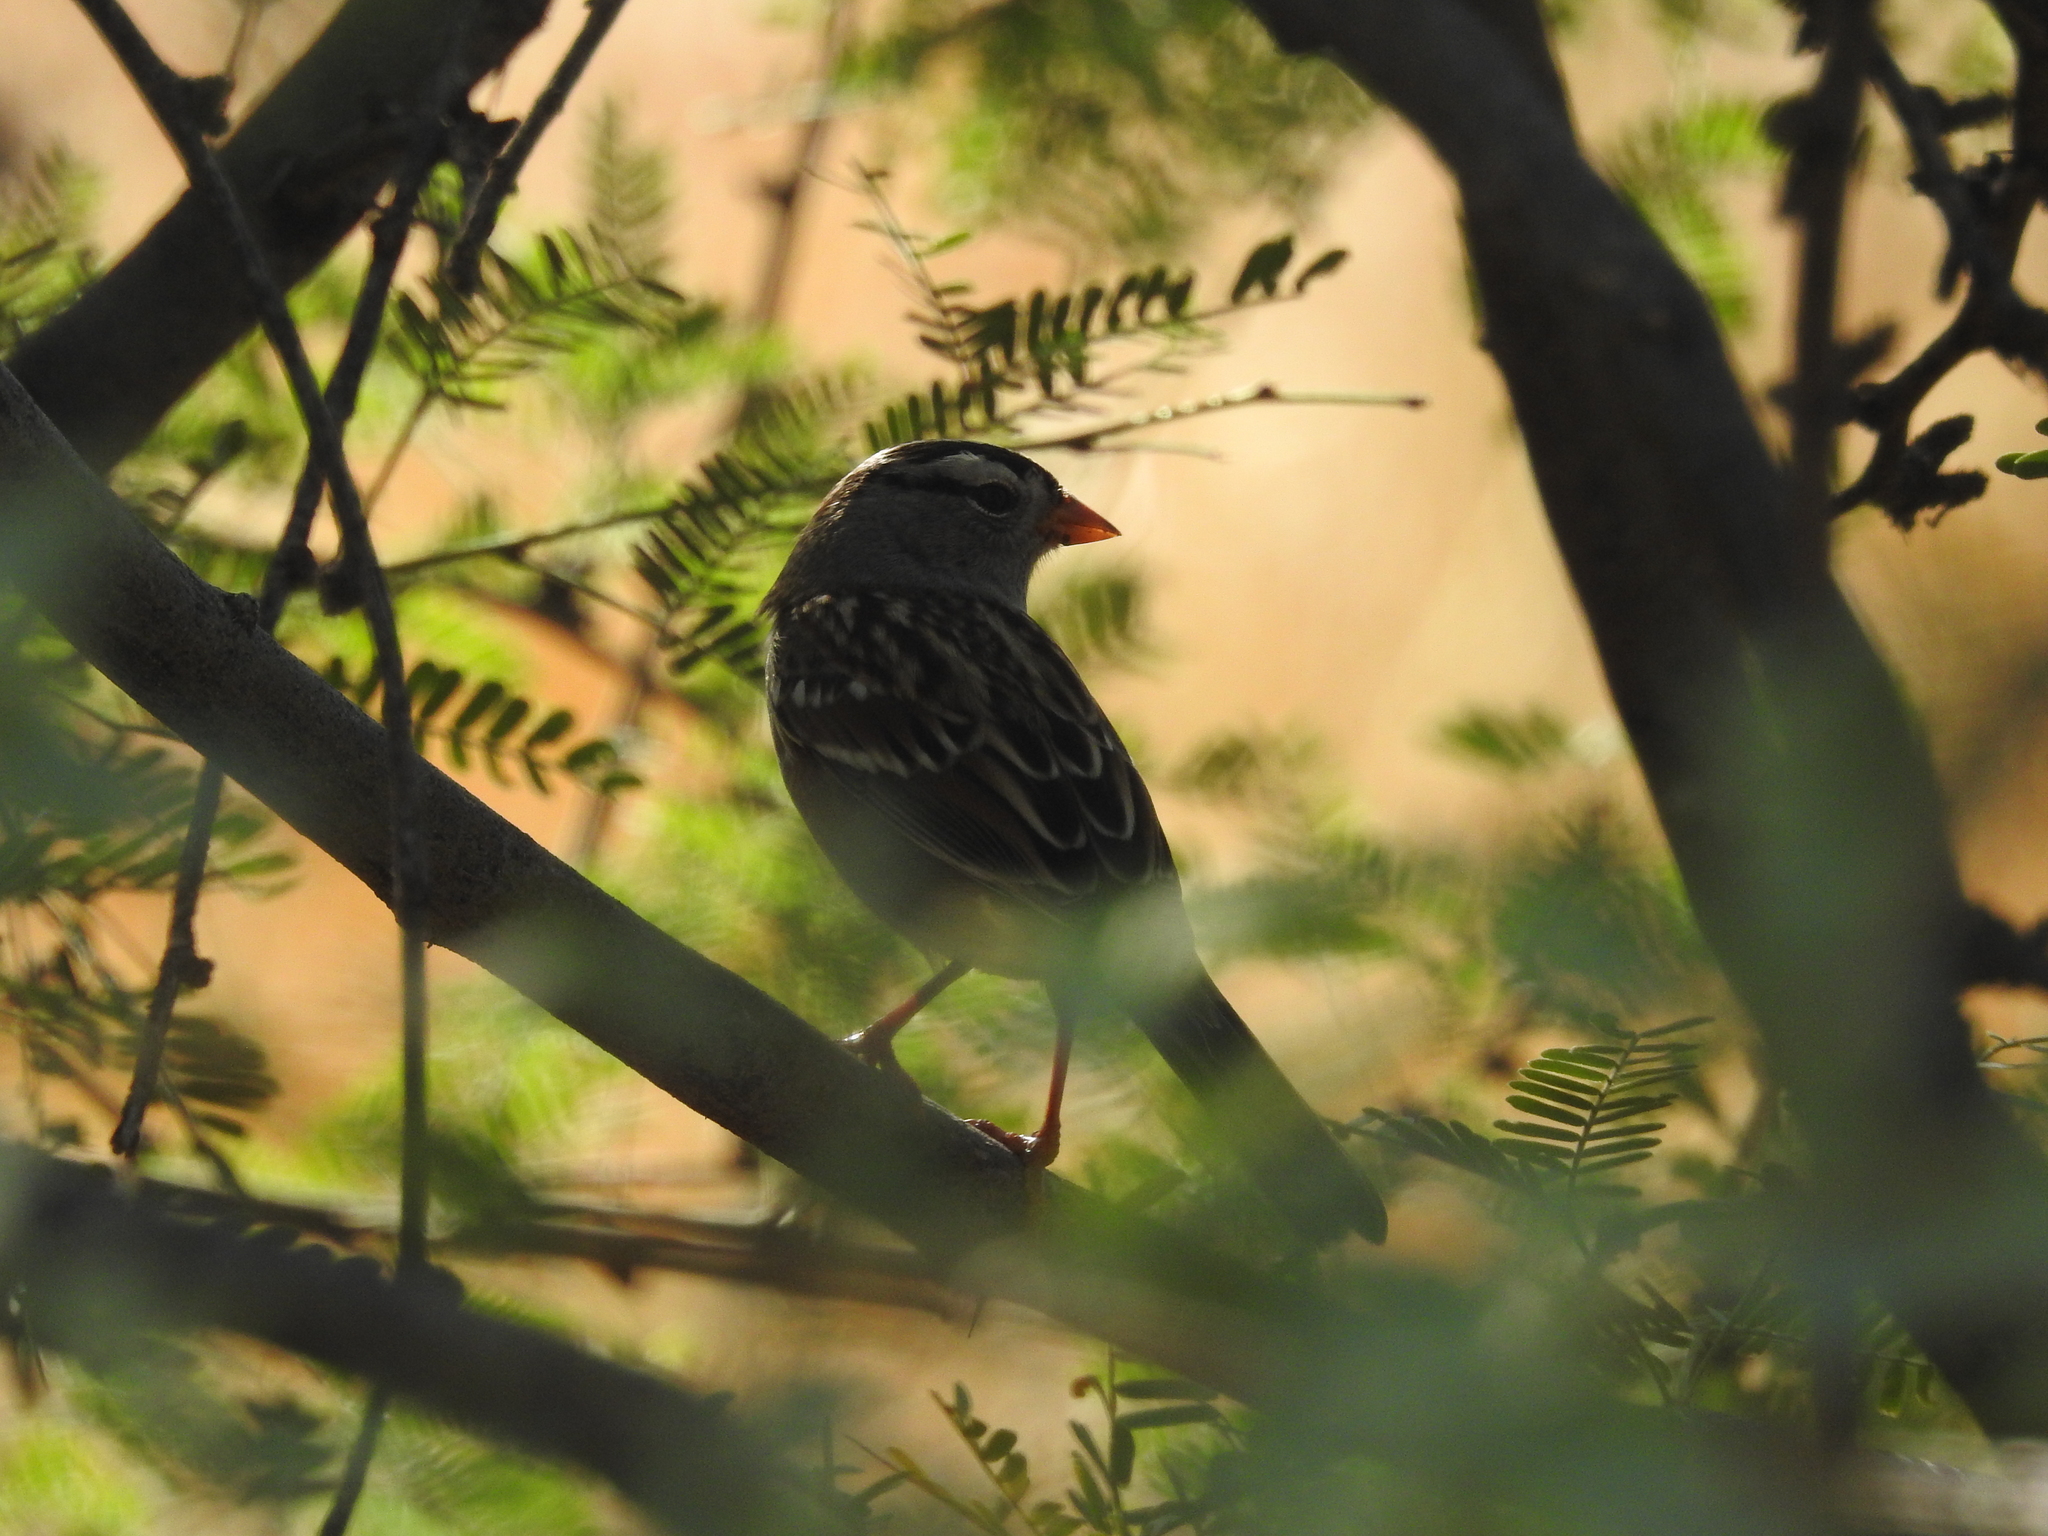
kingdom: Animalia
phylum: Chordata
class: Aves
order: Passeriformes
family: Passerellidae
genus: Zonotrichia
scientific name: Zonotrichia leucophrys
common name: White-crowned sparrow
